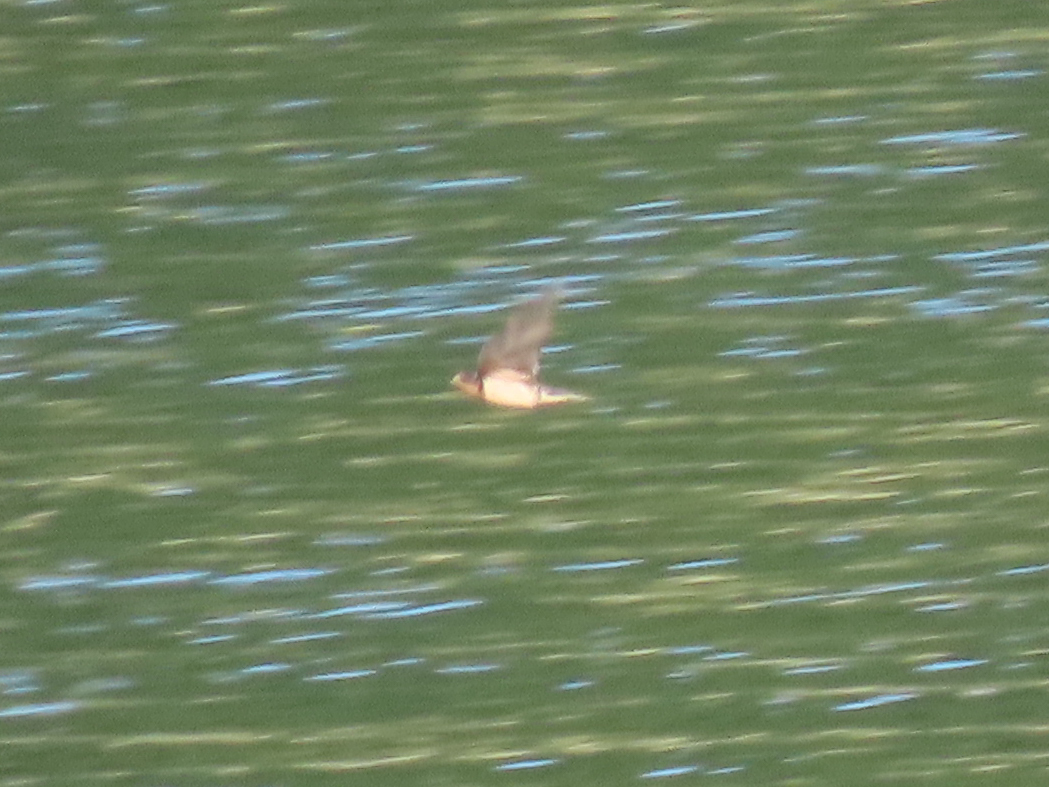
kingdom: Animalia
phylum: Chordata
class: Aves
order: Passeriformes
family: Hirundinidae
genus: Hirundo
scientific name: Hirundo rustica
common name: Barn swallow
